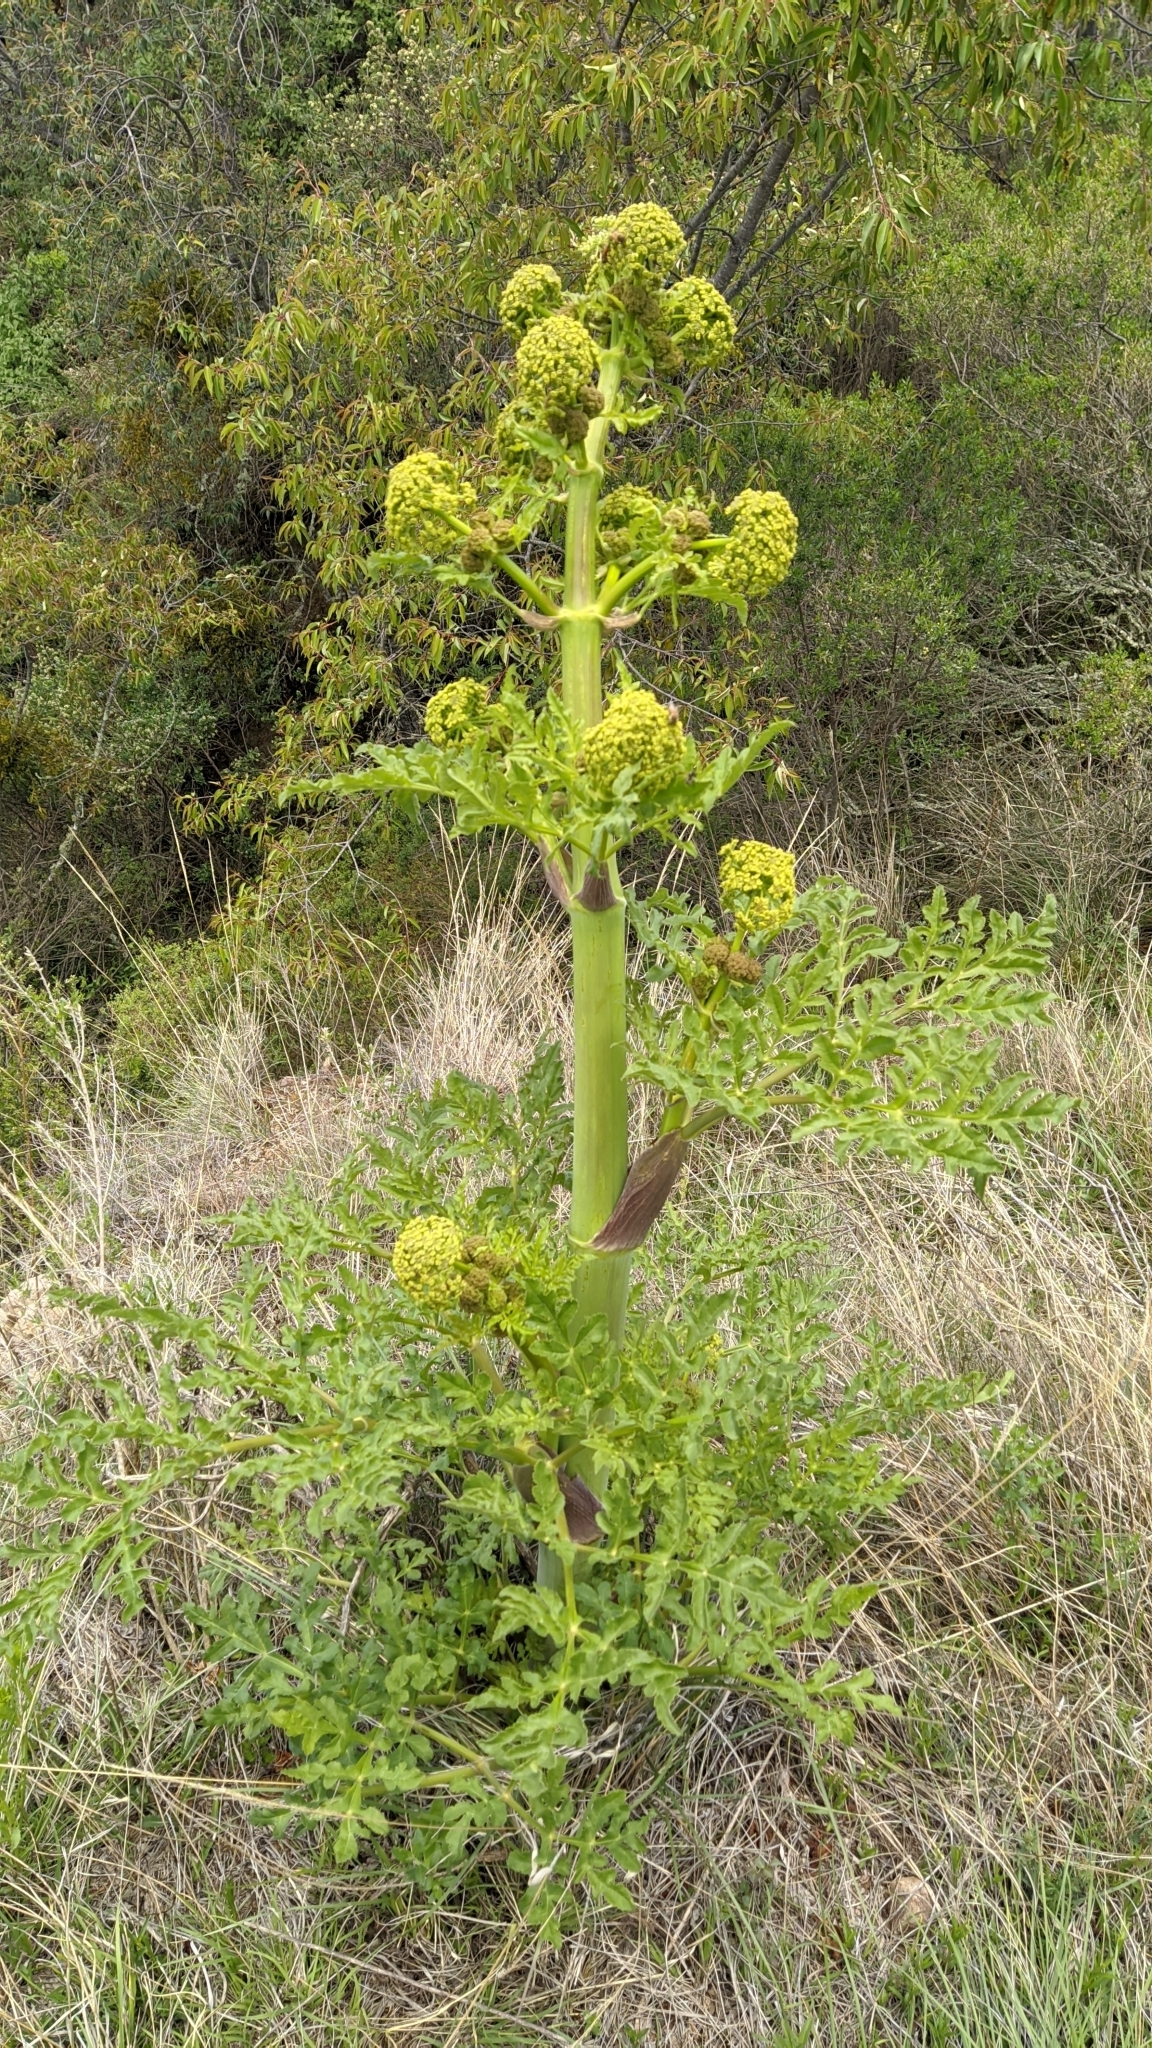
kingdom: Plantae
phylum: Tracheophyta
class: Magnoliopsida
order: Apiales
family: Apiaceae
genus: Prionosciadium
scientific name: Prionosciadium thapsoides
